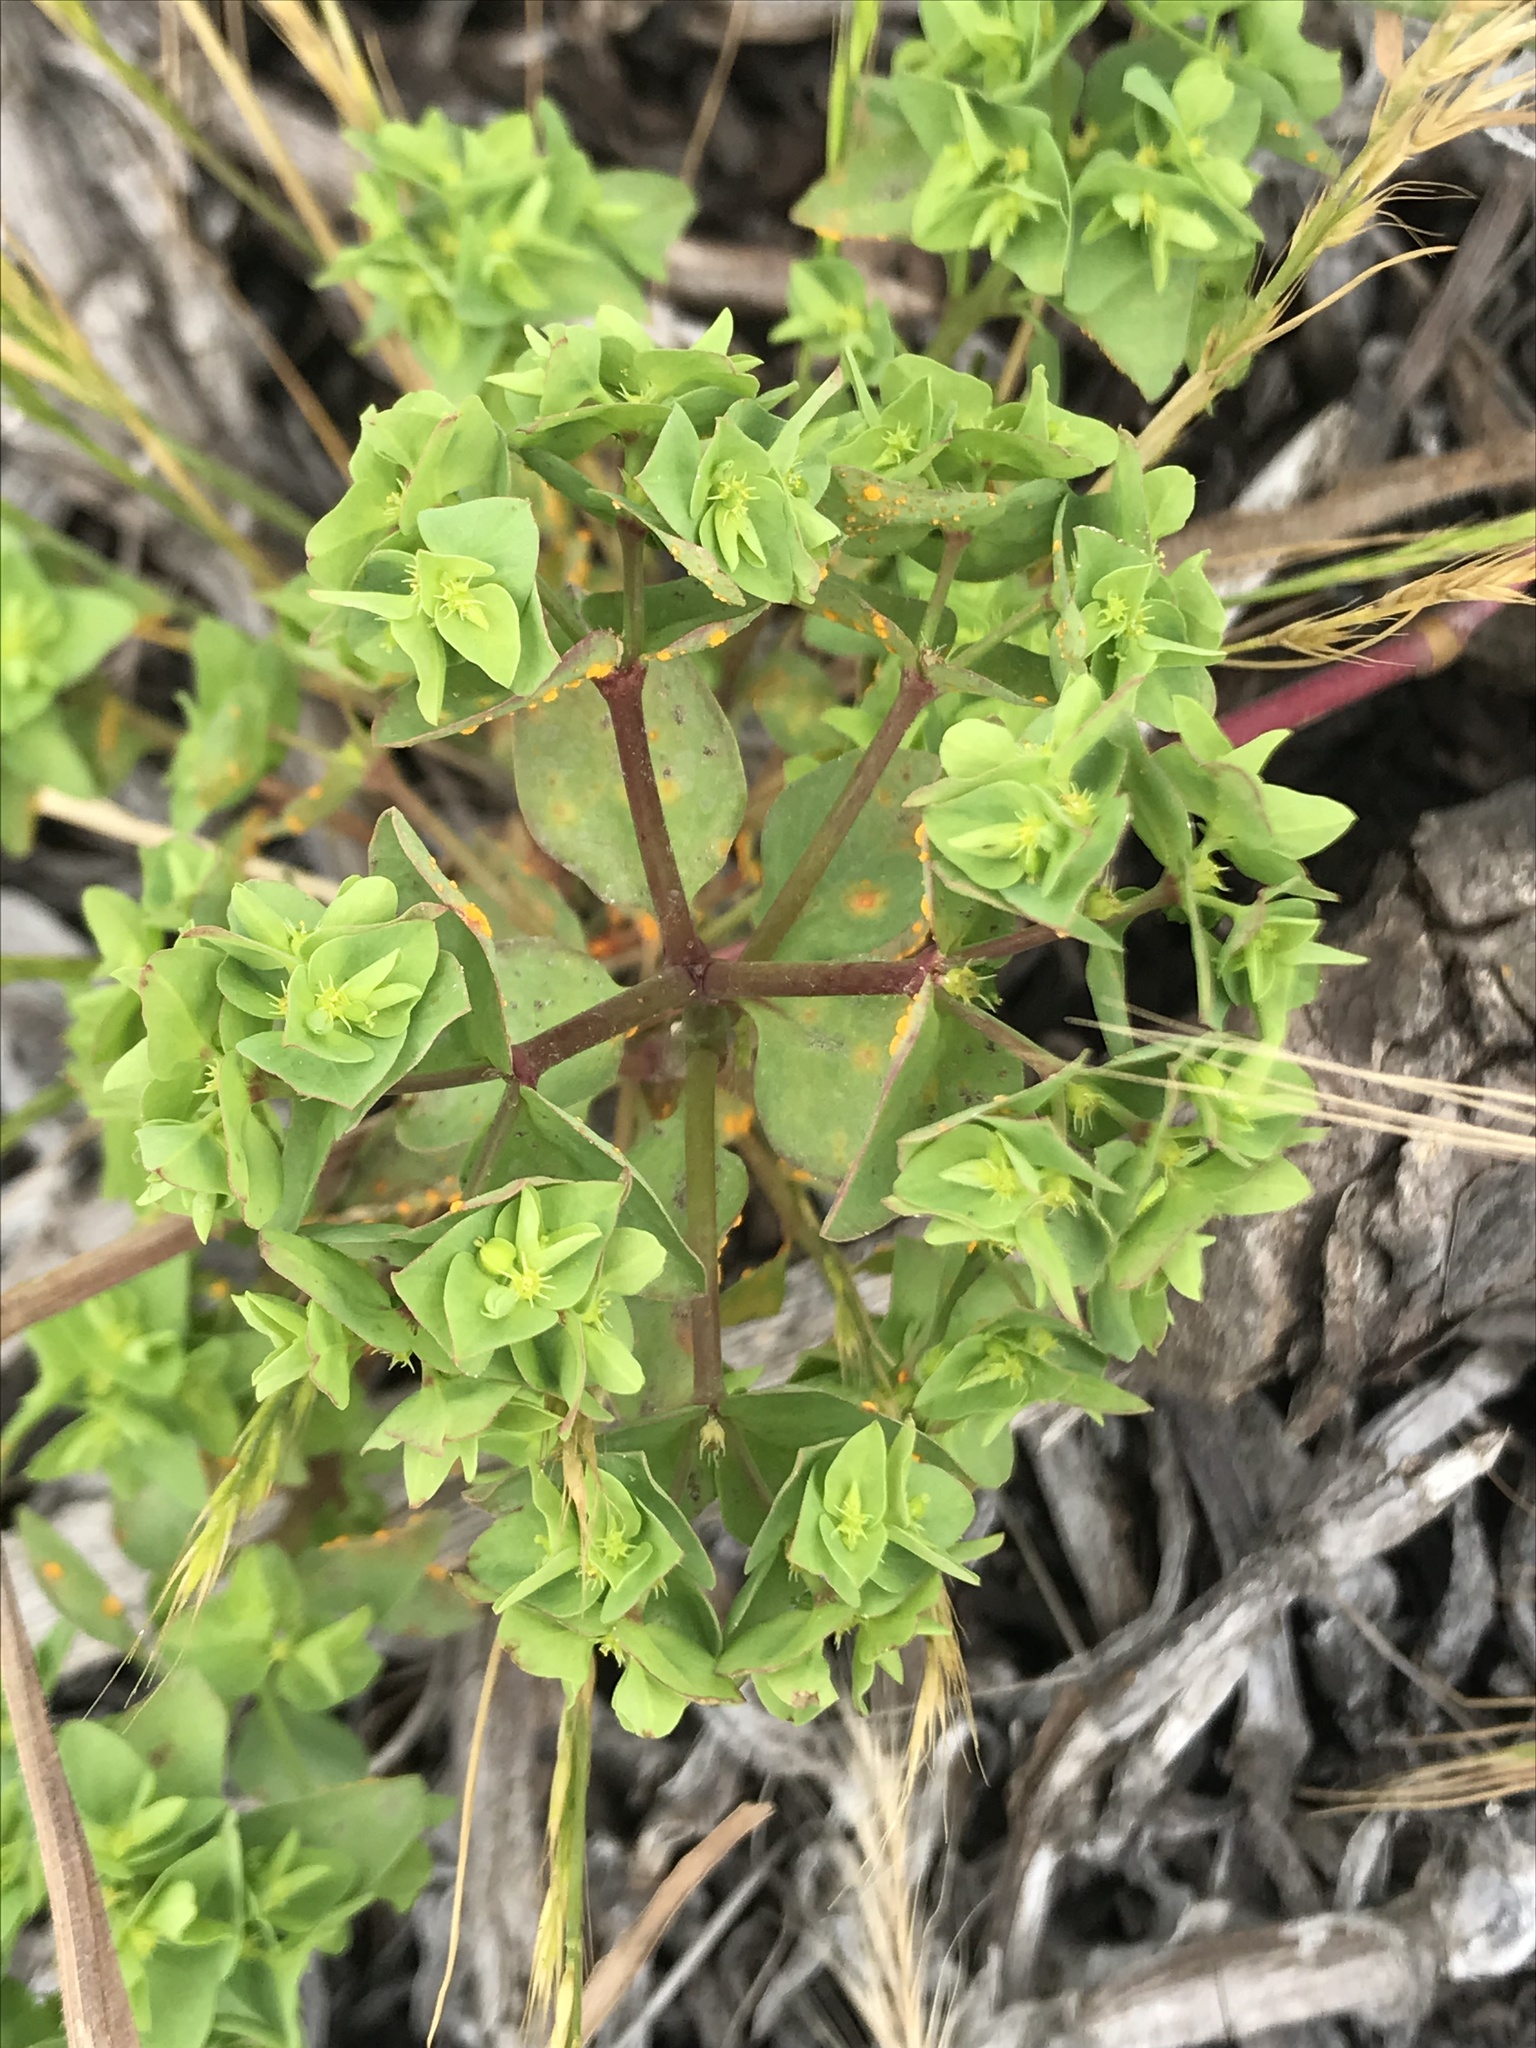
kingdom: Plantae
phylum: Tracheophyta
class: Magnoliopsida
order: Malpighiales
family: Euphorbiaceae
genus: Euphorbia
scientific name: Euphorbia peplus
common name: Petty spurge
